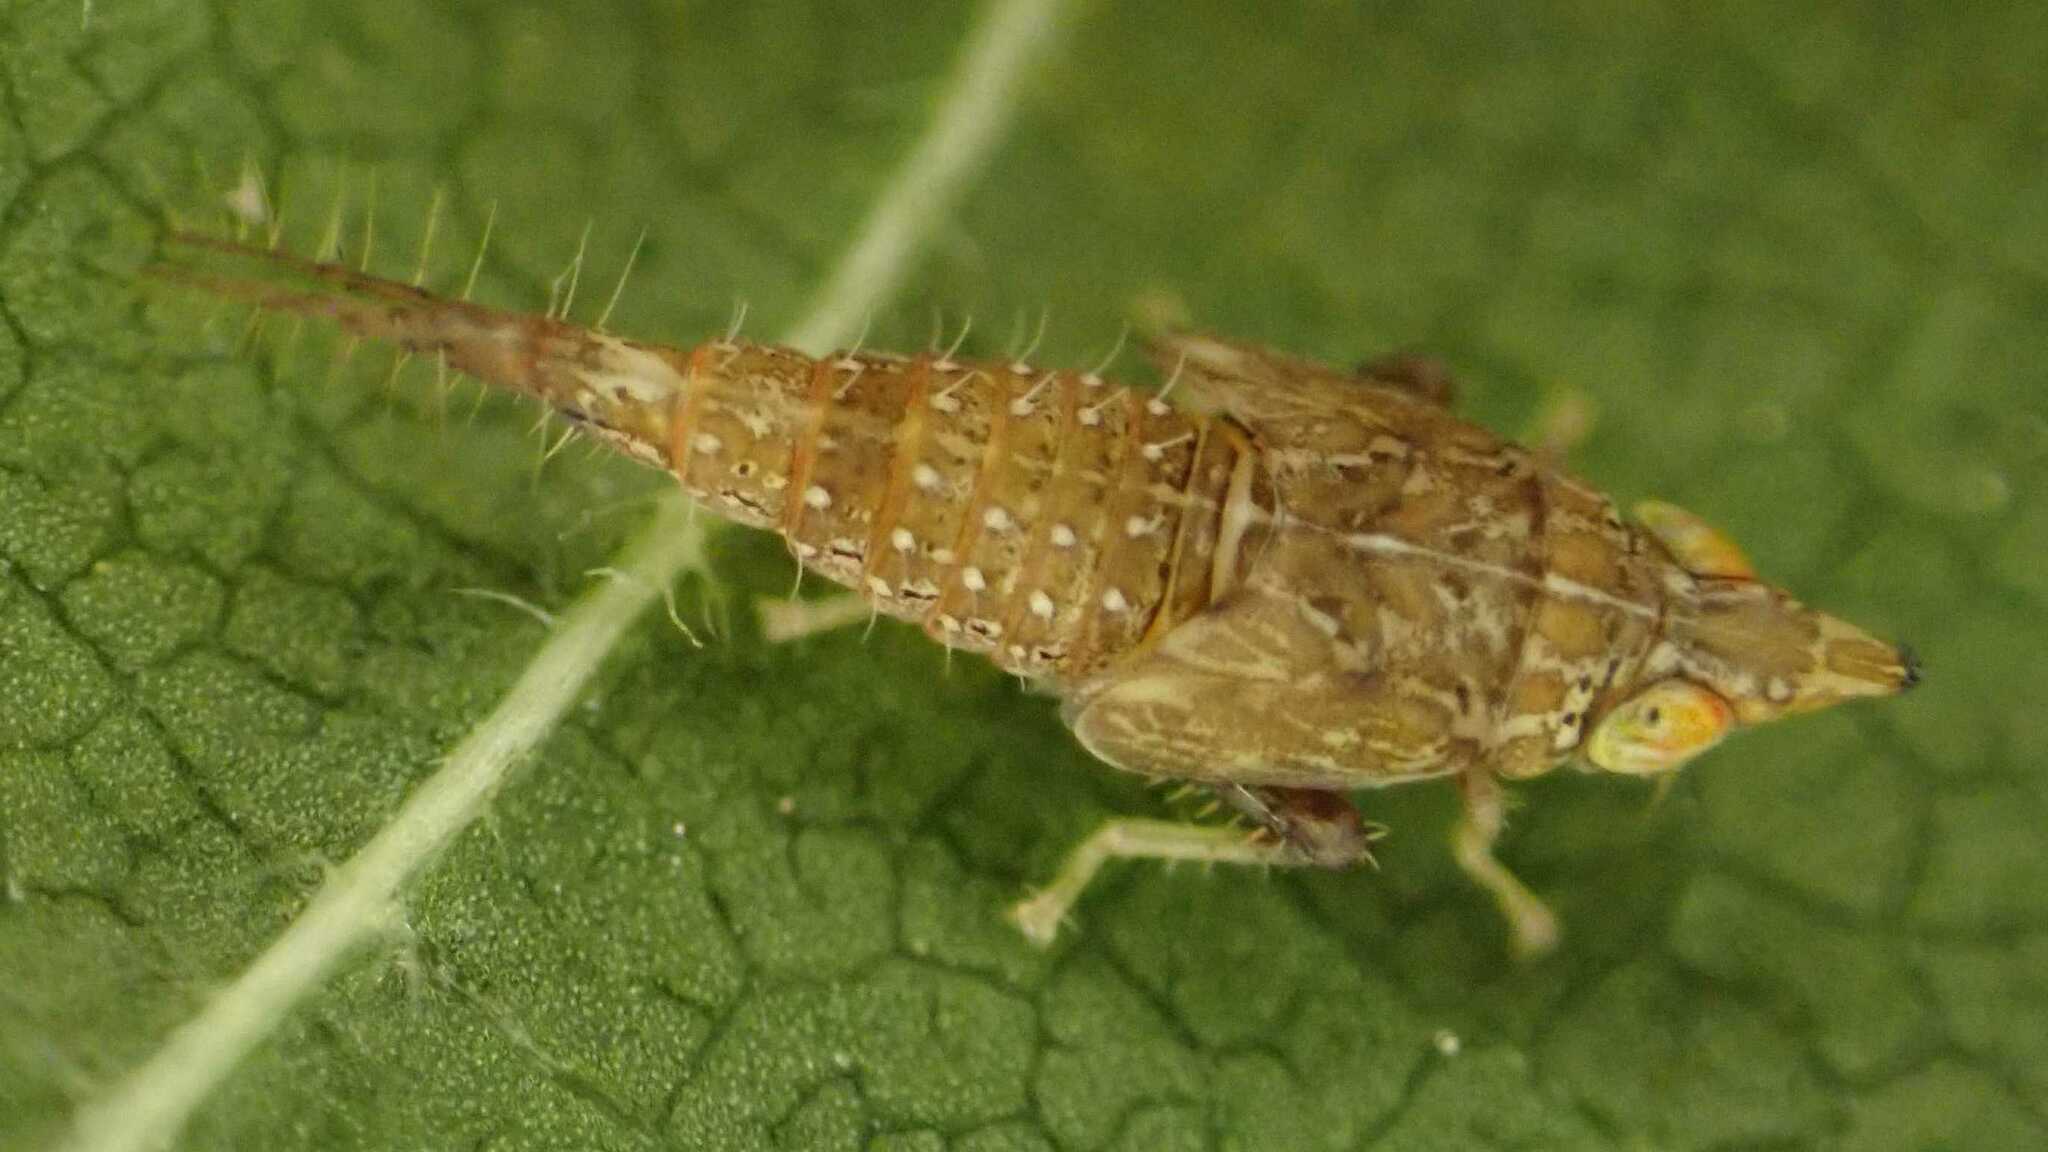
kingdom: Animalia
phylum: Arthropoda
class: Insecta
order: Hemiptera
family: Cicadellidae
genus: Japananus
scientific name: Japananus hyalinus
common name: The japanese maple leafhopper
